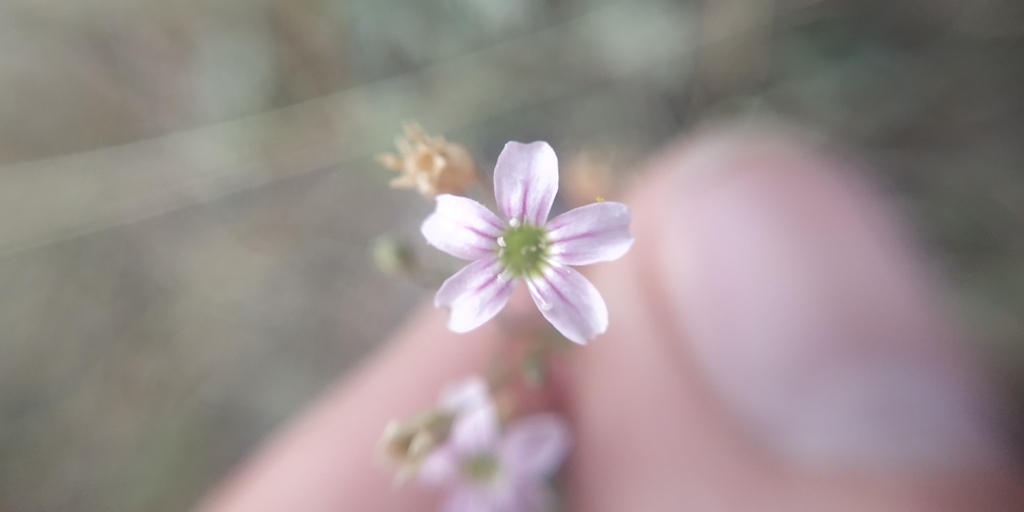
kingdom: Plantae
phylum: Tracheophyta
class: Magnoliopsida
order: Caryophyllales
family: Caryophyllaceae
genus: Psammophiliella
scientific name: Psammophiliella muralis
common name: Cushion baby's-breath
